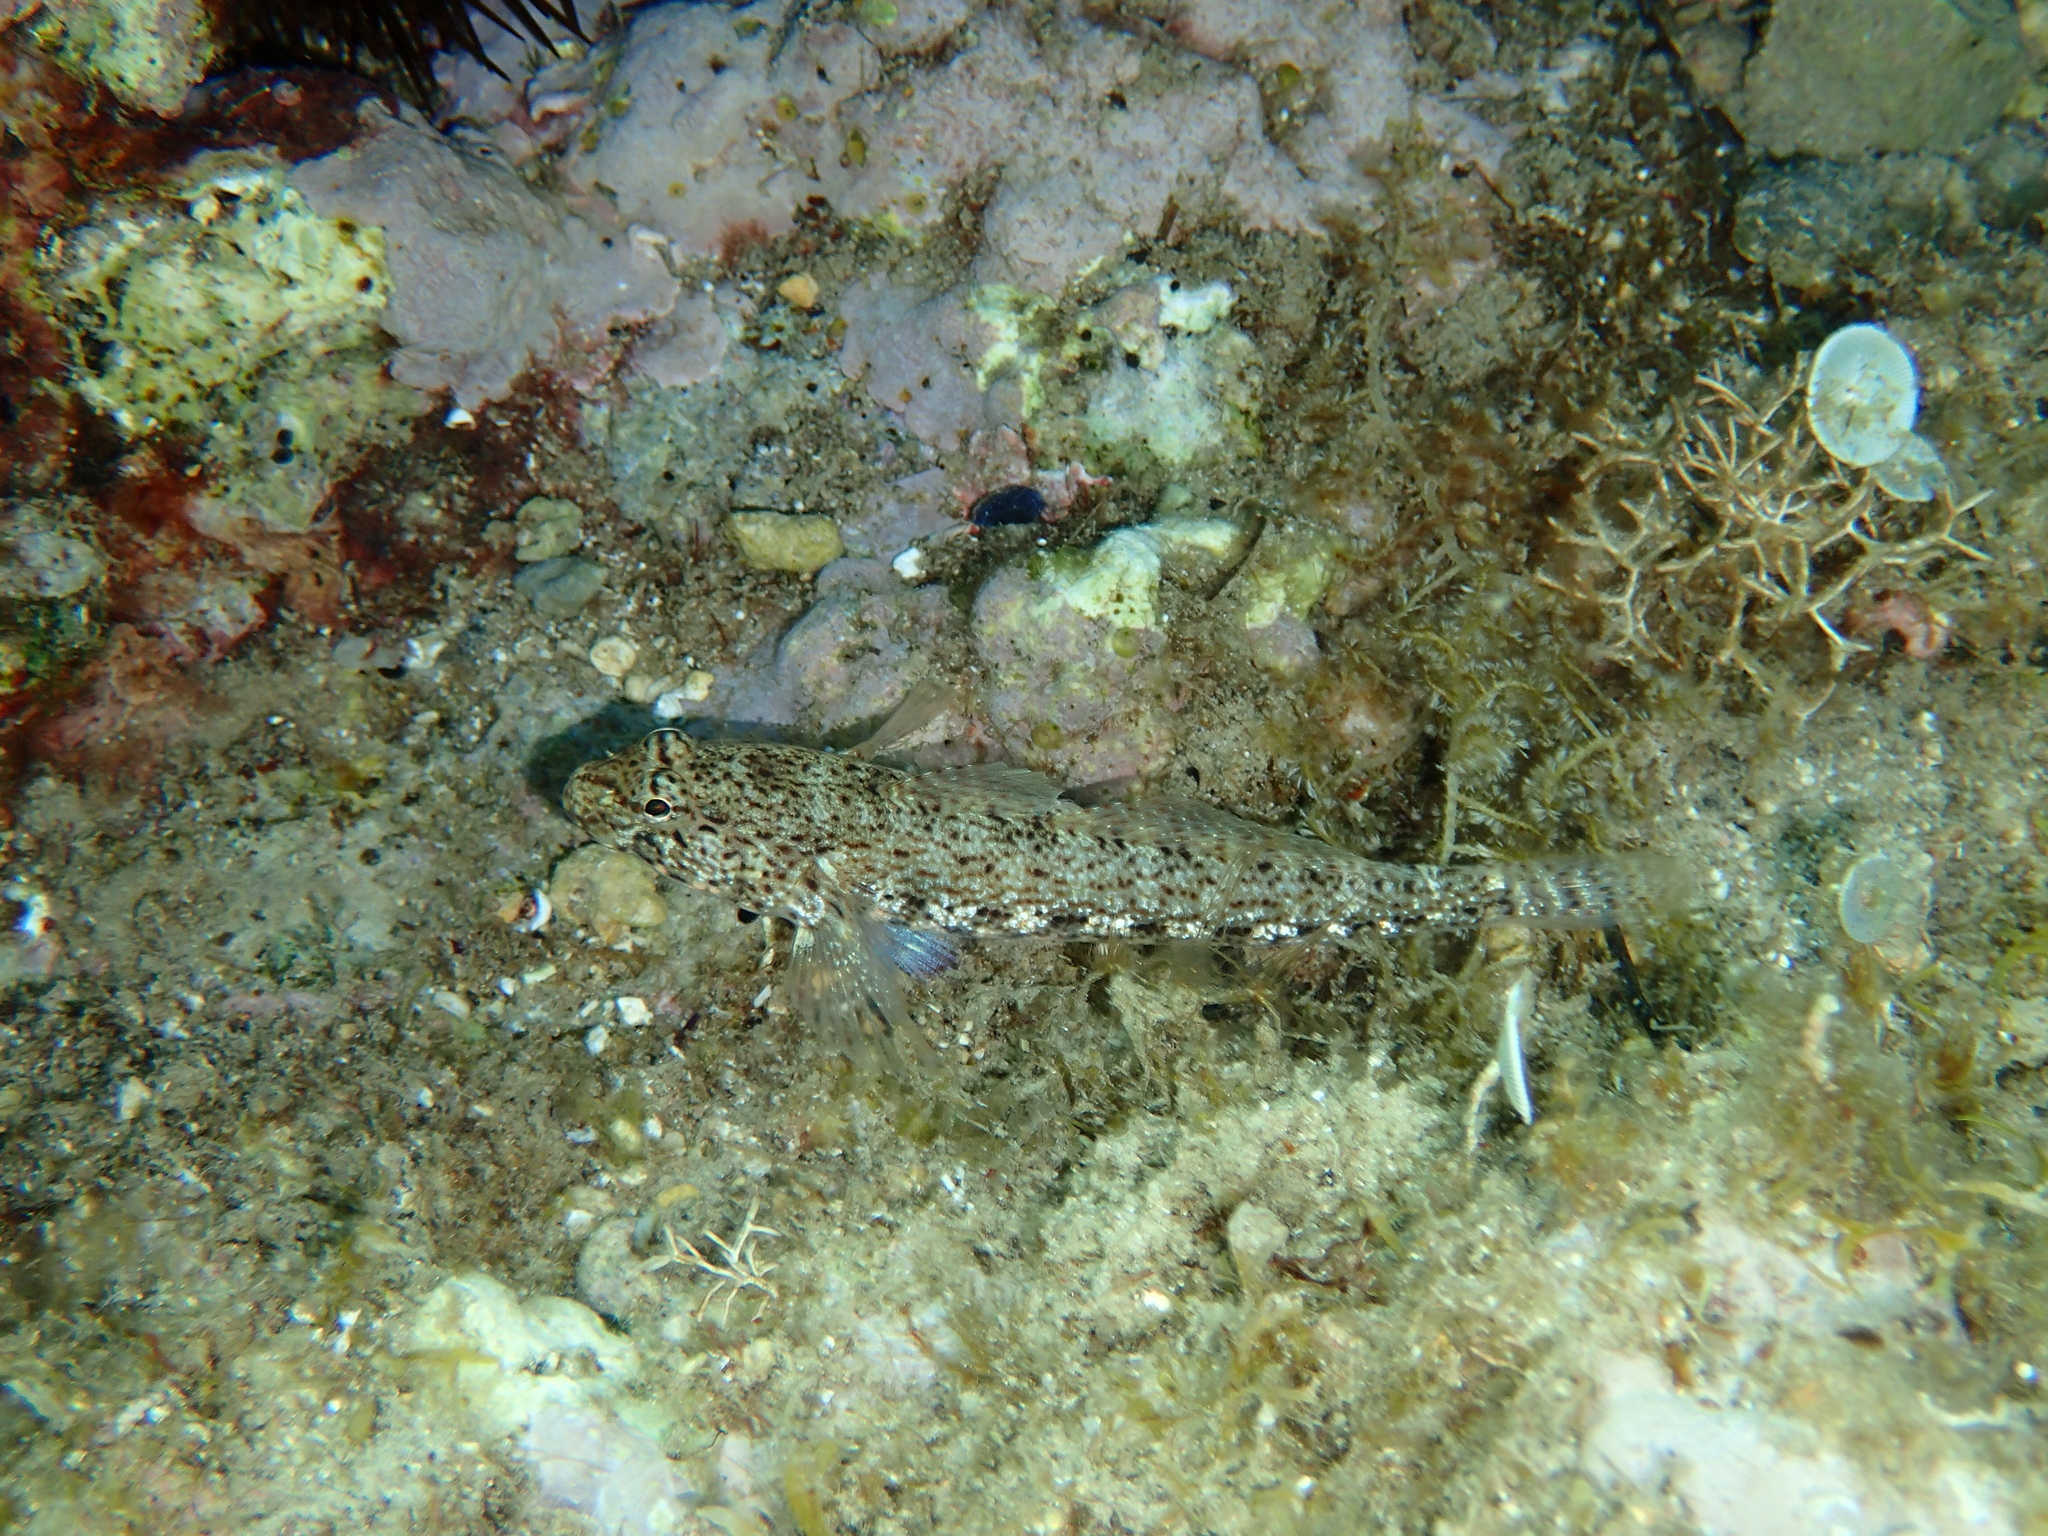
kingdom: Animalia
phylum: Chordata
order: Perciformes
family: Gobiidae
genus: Gobius
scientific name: Gobius incognitus
